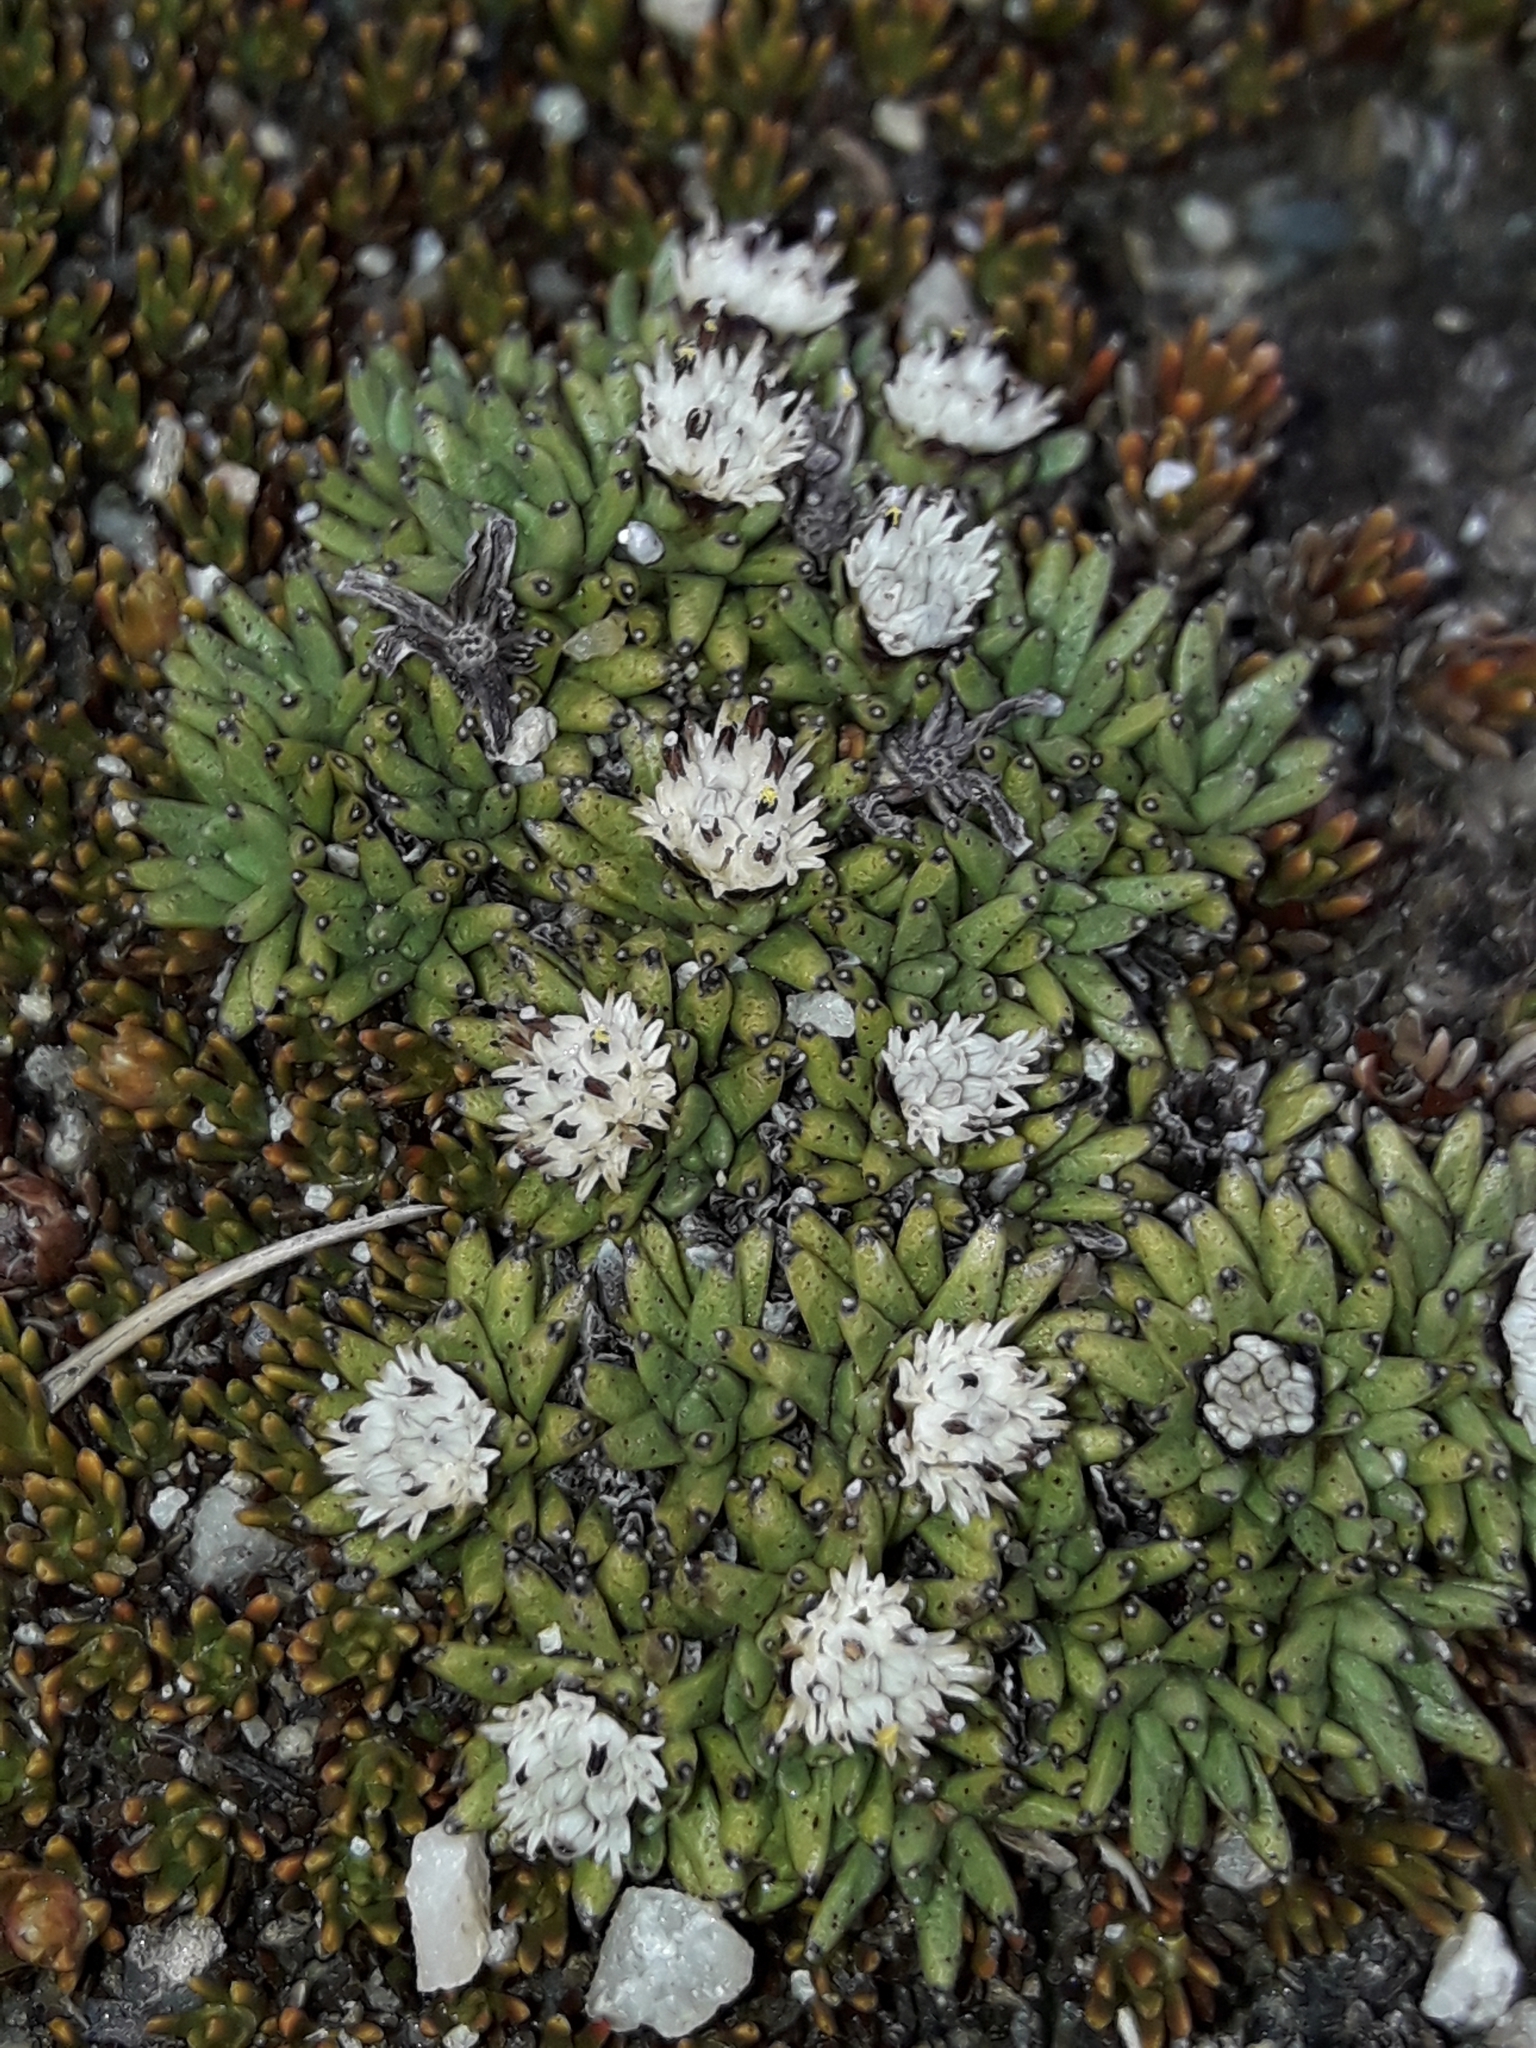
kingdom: Plantae
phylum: Tracheophyta
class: Magnoliopsida
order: Asterales
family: Asteraceae
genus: Abrotanella
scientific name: Abrotanella inconspicua
